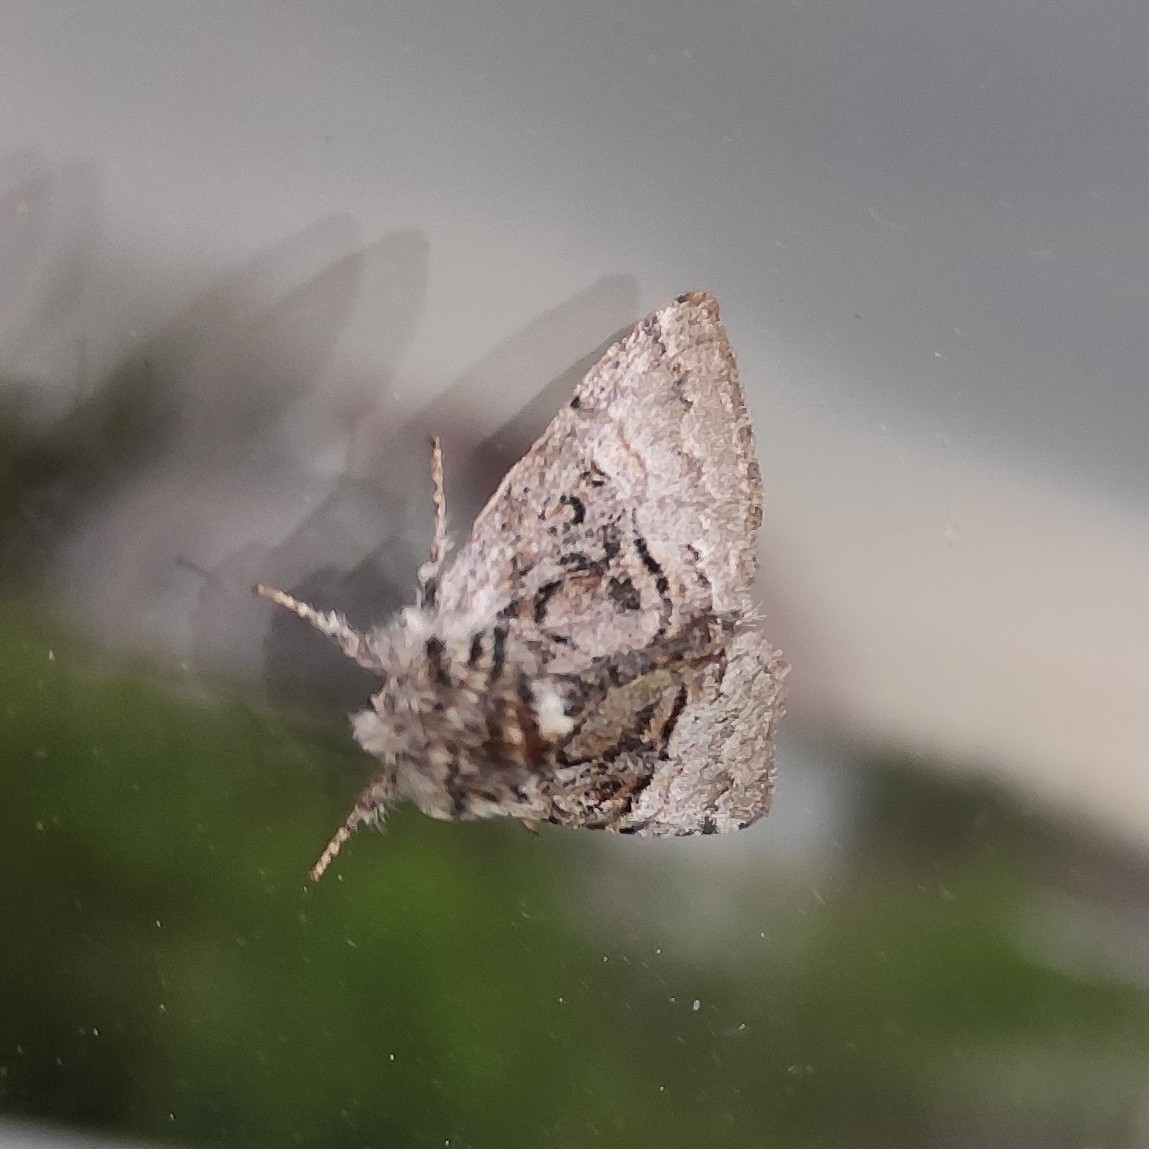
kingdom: Animalia
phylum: Arthropoda
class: Insecta
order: Lepidoptera
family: Noctuidae
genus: Colocasia
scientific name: Colocasia coryli
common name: Nut-tree tussock
